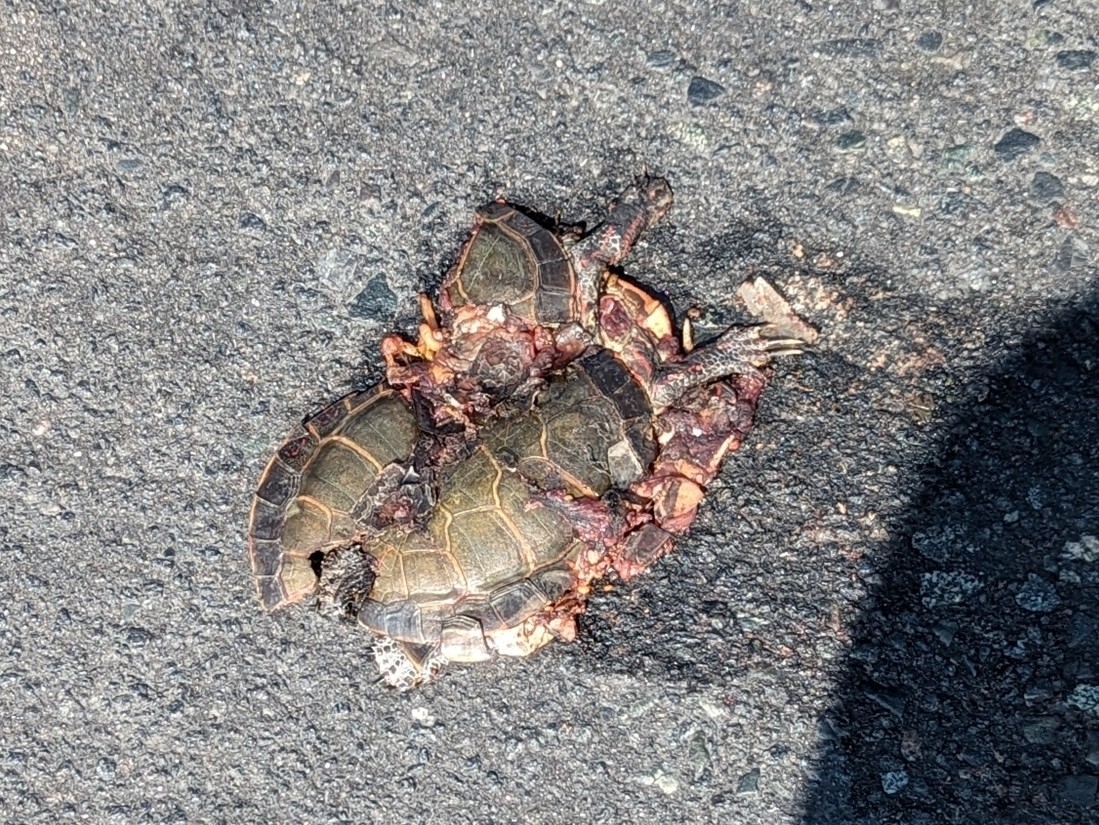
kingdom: Animalia
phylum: Chordata
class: Testudines
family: Emydidae
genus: Chrysemys
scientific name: Chrysemys picta
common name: Painted turtle
